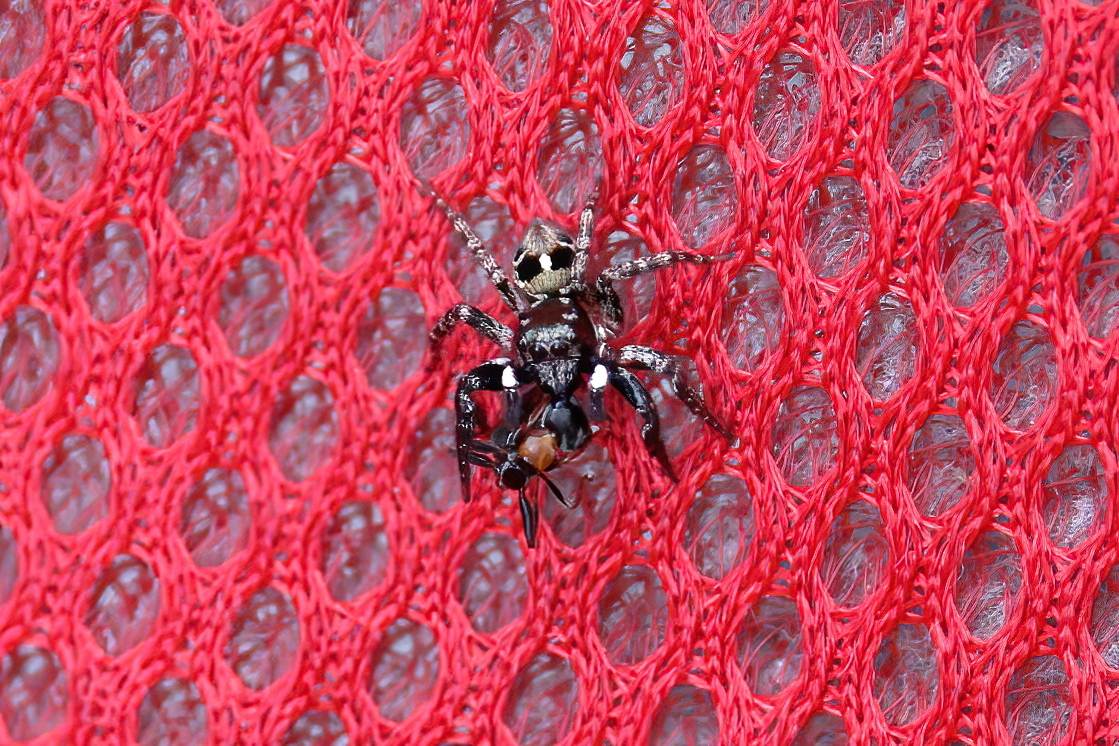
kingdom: Animalia
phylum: Arthropoda
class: Arachnida
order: Araneae
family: Salticidae
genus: Anasaitis
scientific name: Anasaitis canosa
